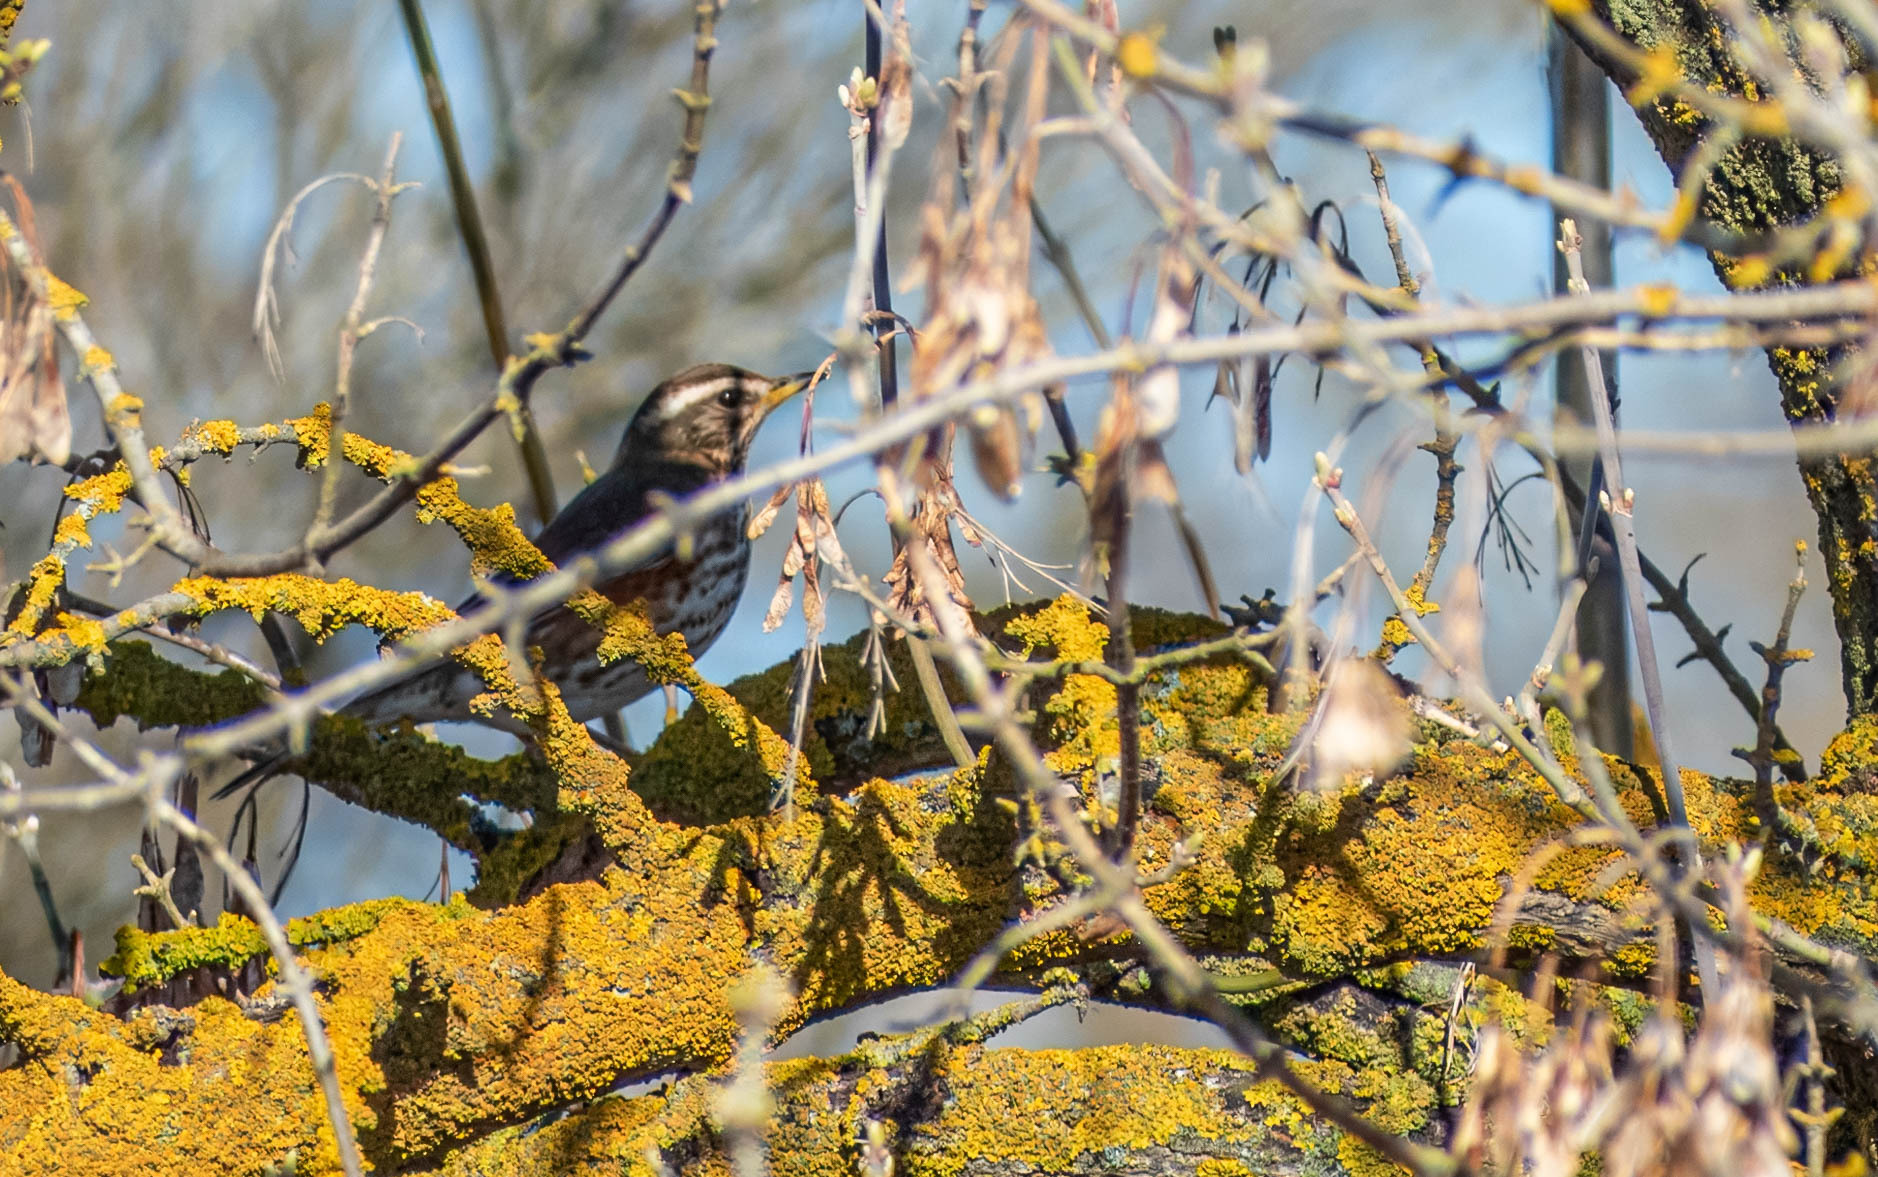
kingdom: Animalia
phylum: Chordata
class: Aves
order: Passeriformes
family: Turdidae
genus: Turdus
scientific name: Turdus iliacus
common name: Redwing
